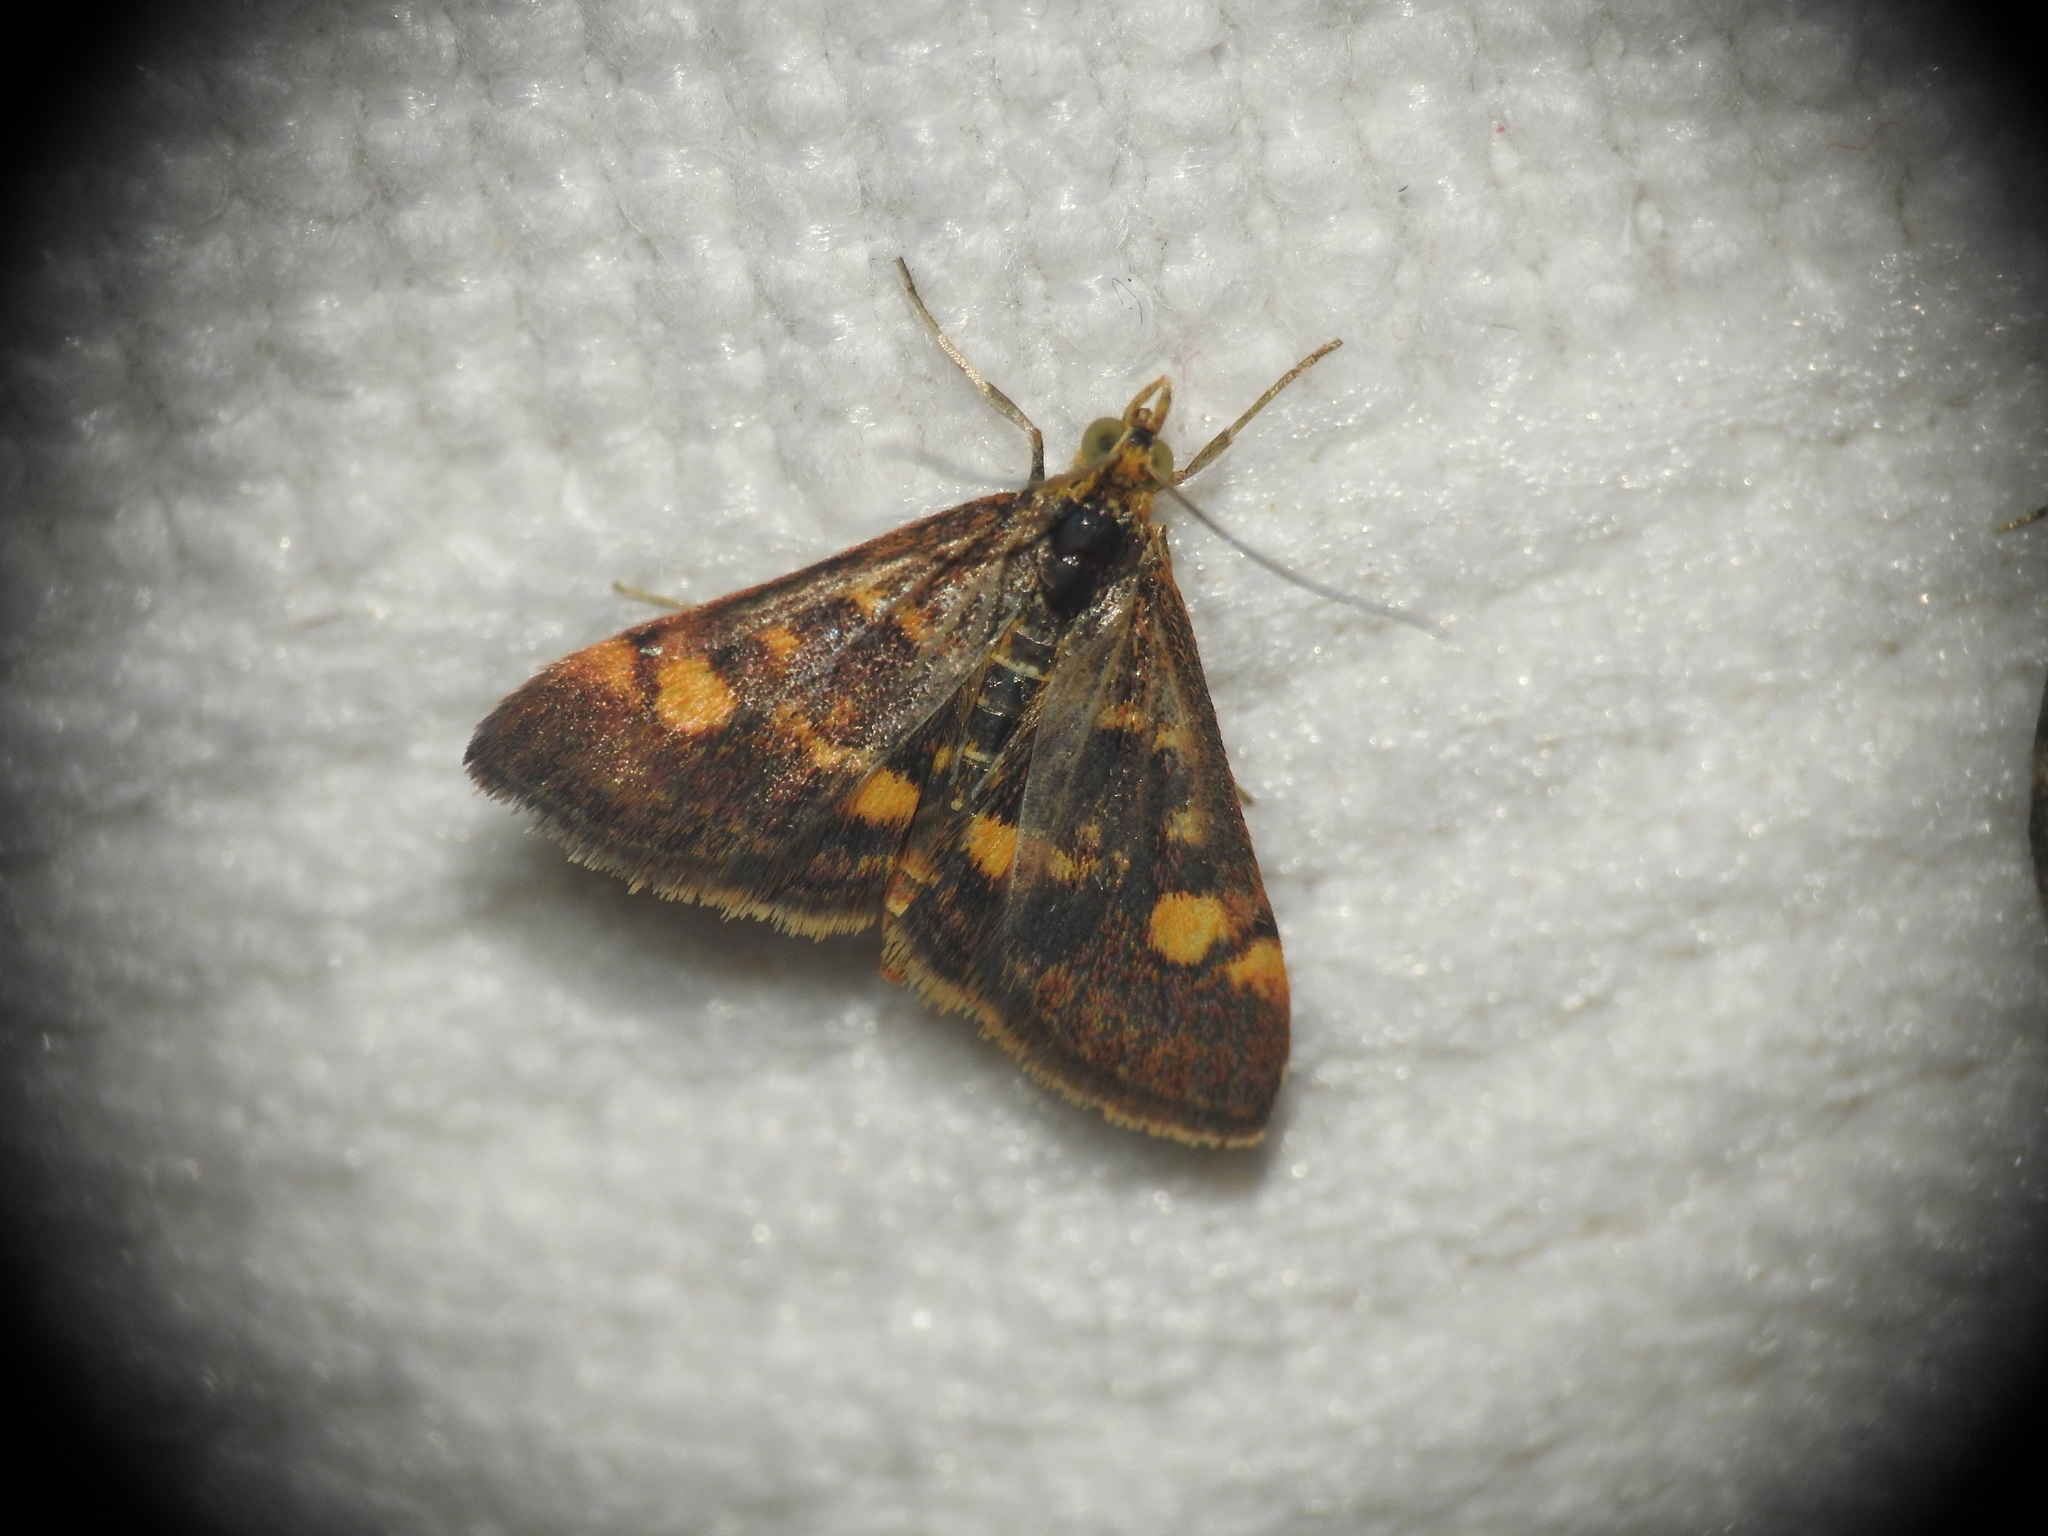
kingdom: Animalia
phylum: Arthropoda
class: Insecta
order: Lepidoptera
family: Crambidae
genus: Pyrausta
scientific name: Pyrausta aurata
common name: Small purple & gold
